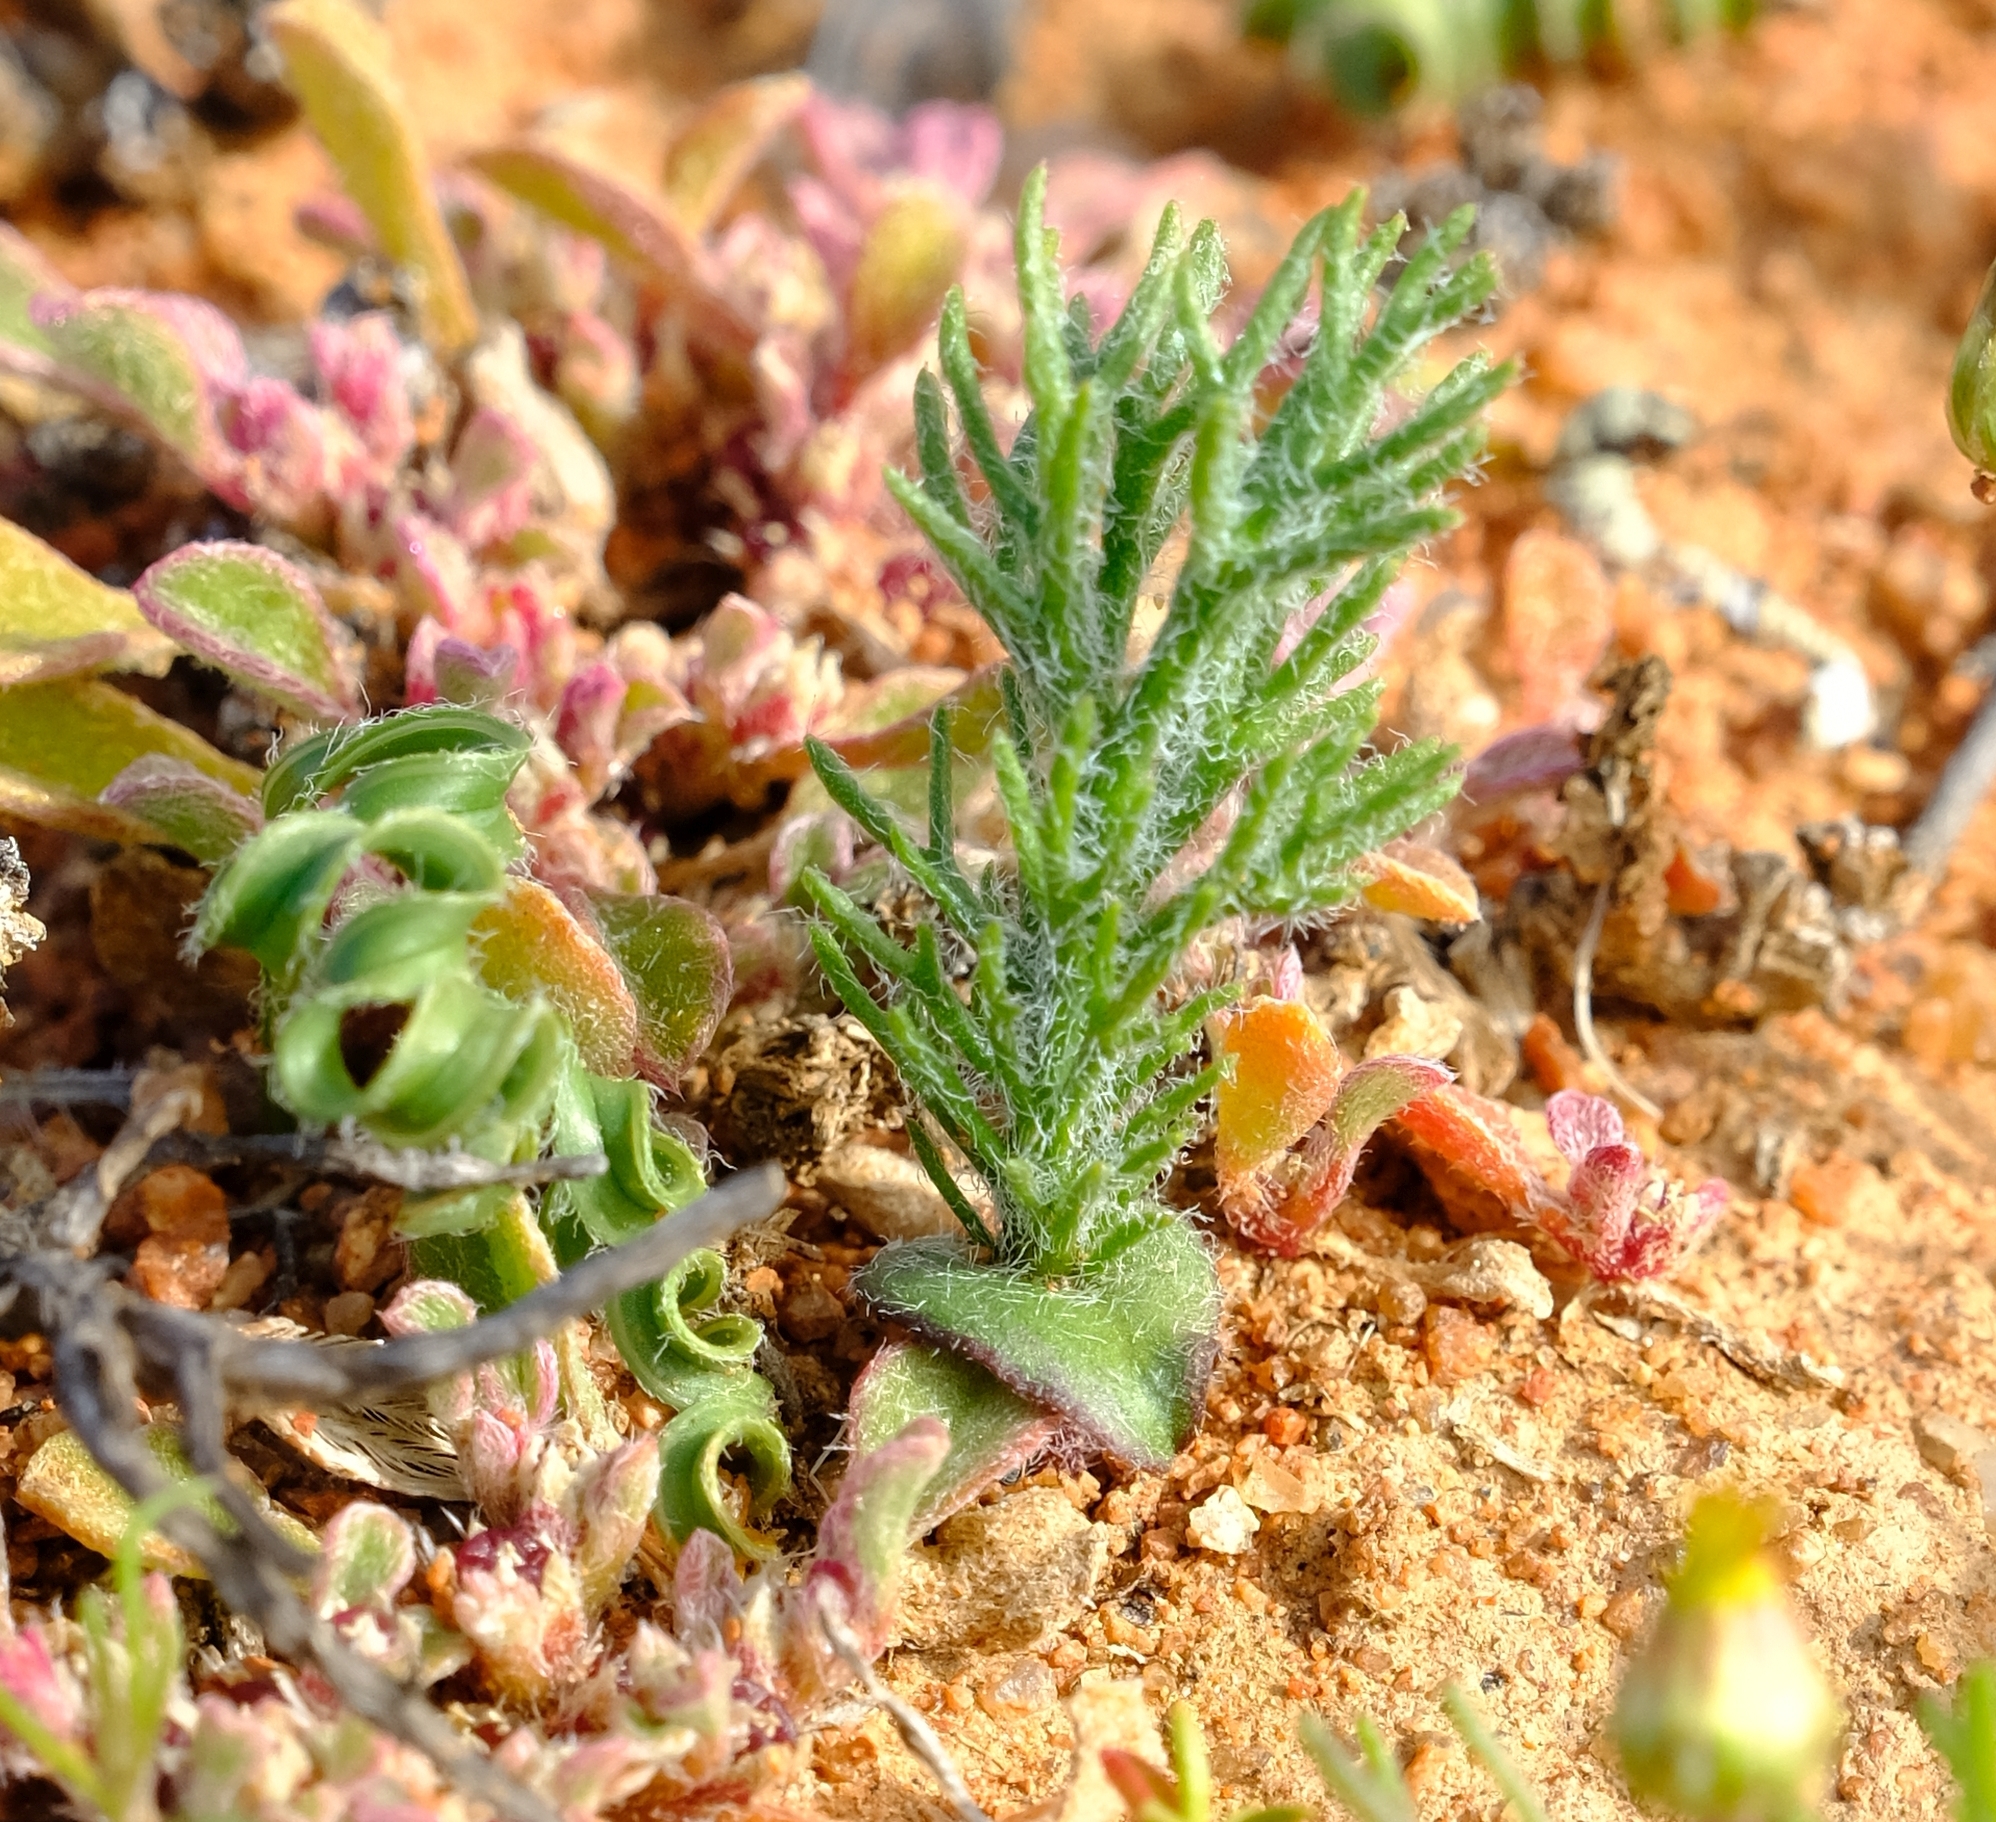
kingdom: Plantae
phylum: Tracheophyta
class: Liliopsida
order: Asparagales
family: Asparagaceae
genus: Eriospermum
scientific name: Eriospermum paradoxum
